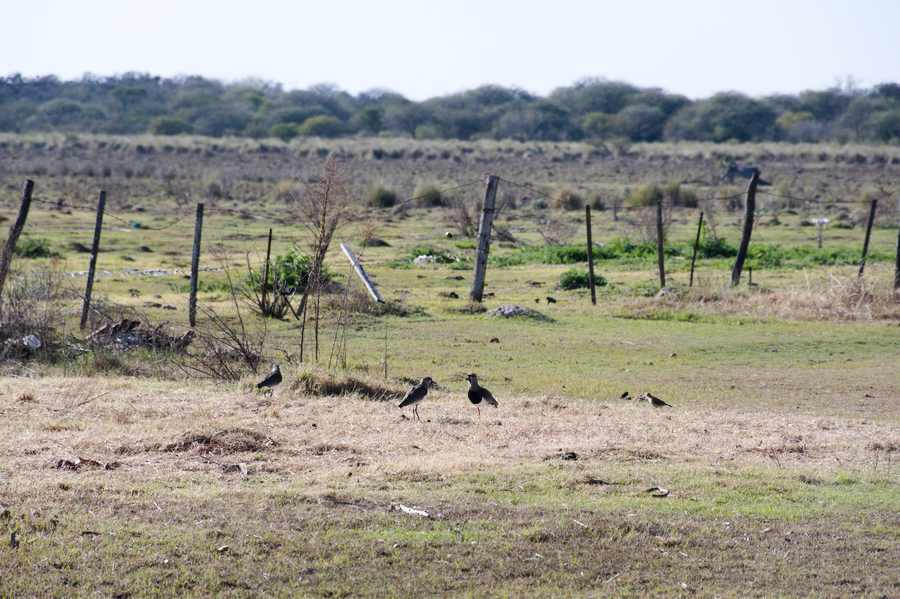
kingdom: Animalia
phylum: Chordata
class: Aves
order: Charadriiformes
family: Charadriidae
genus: Vanellus
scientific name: Vanellus chilensis
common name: Southern lapwing
